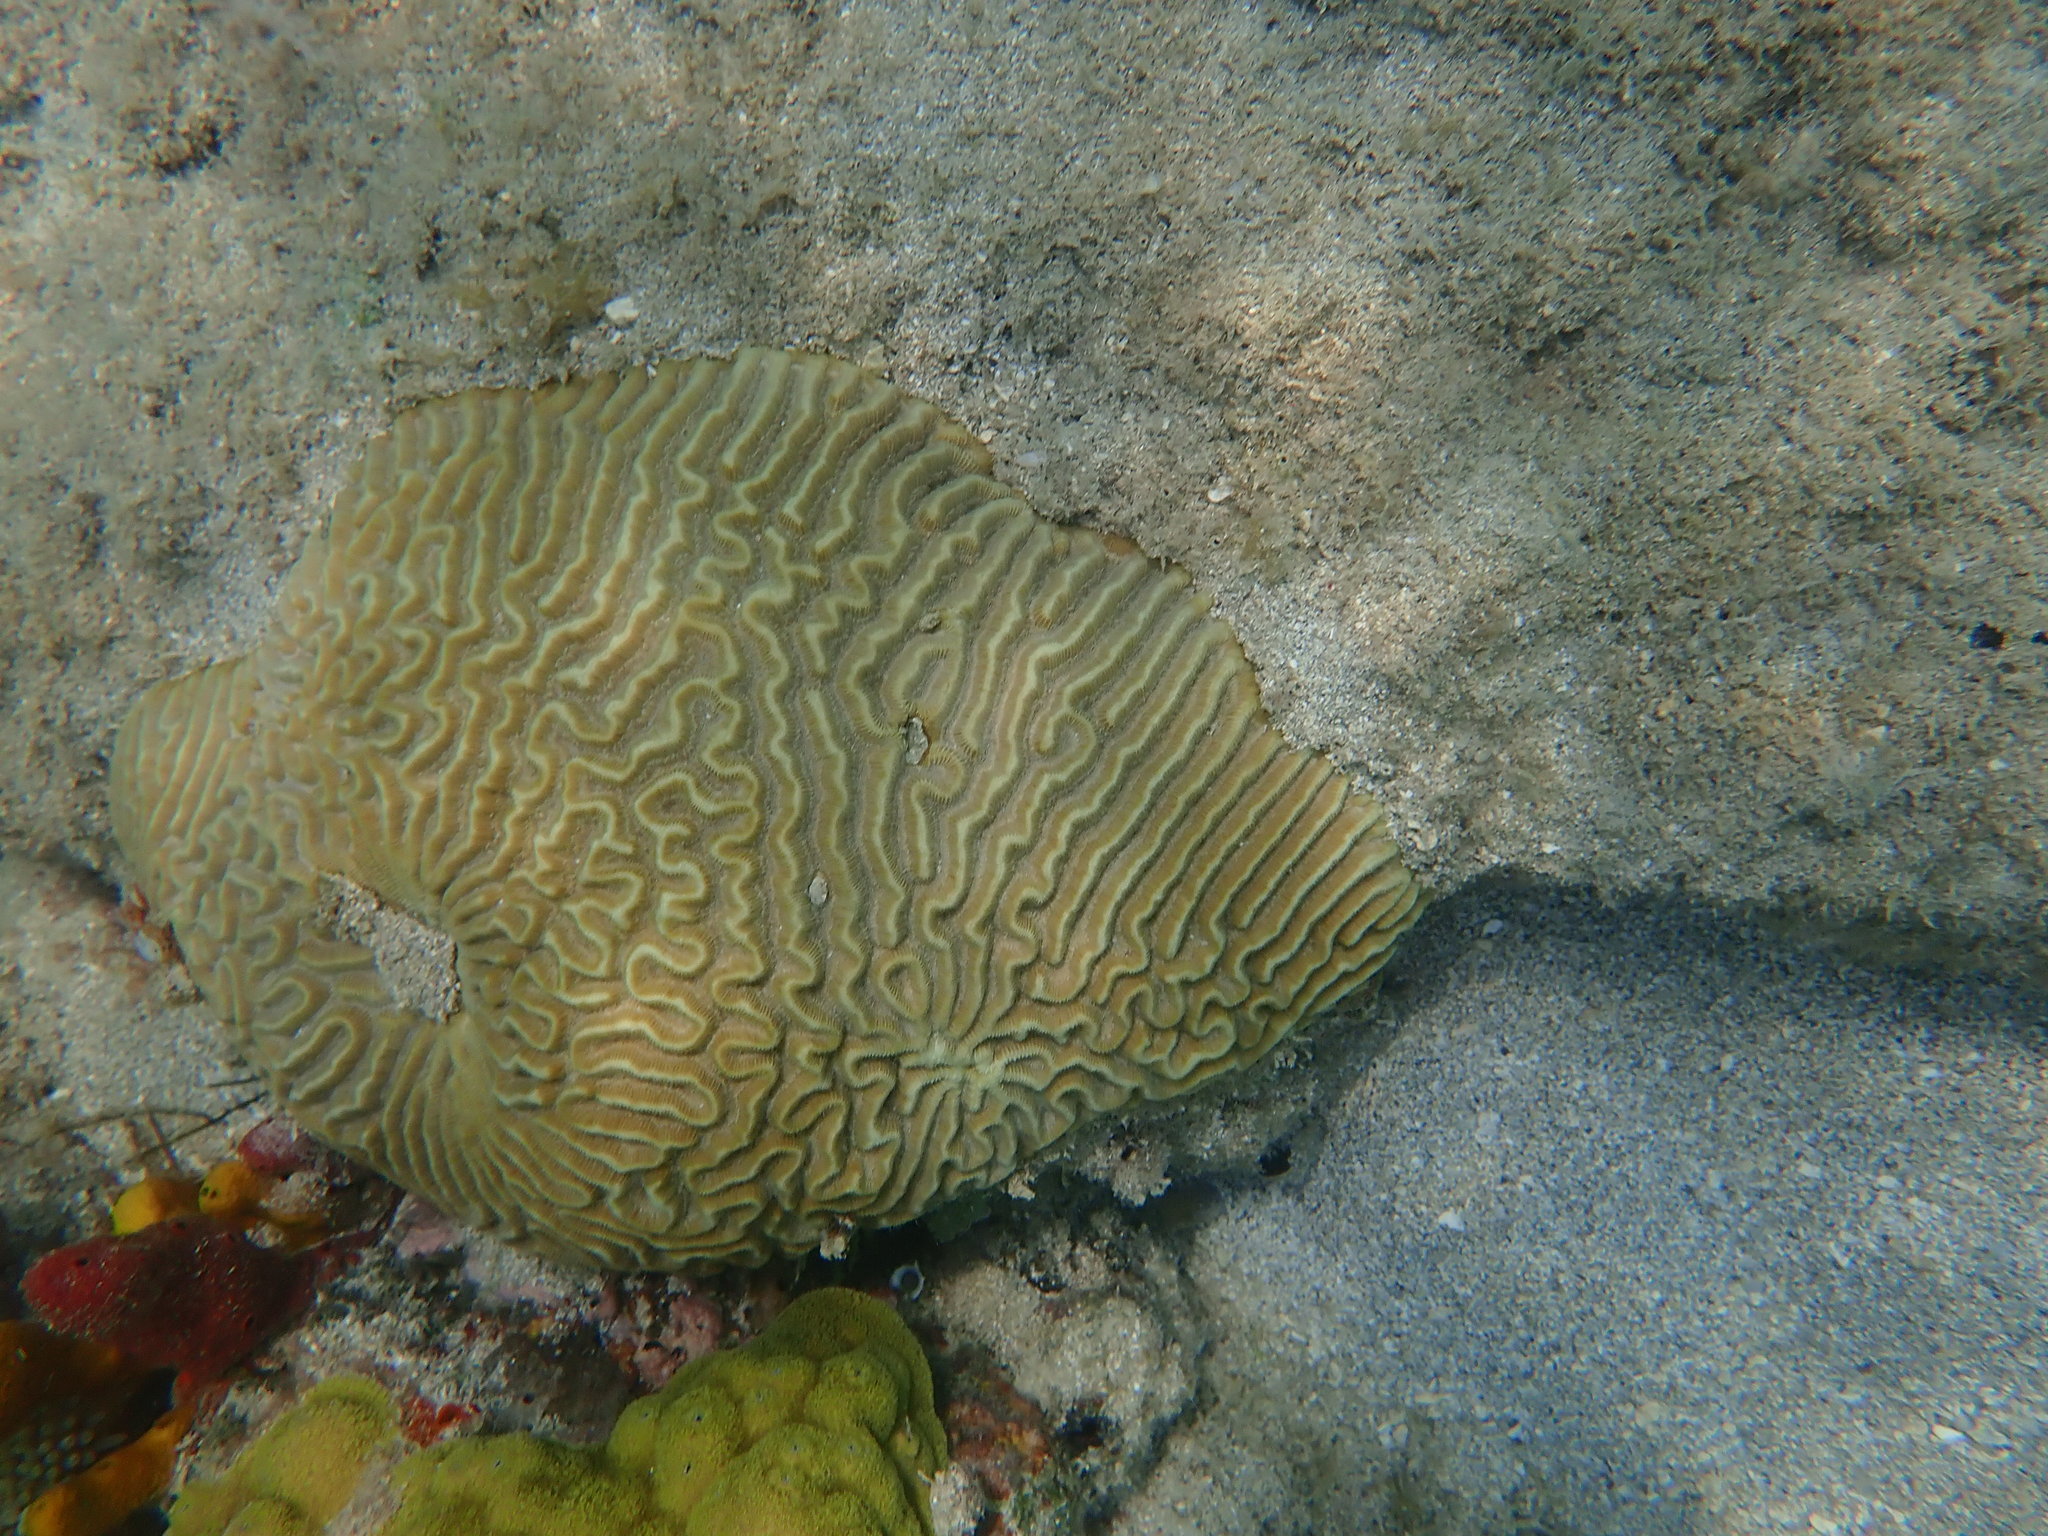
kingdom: Animalia
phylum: Cnidaria
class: Anthozoa
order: Scleractinia
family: Faviidae
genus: Pseudodiploria
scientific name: Pseudodiploria strigosa
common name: Symmetrical brain coral
